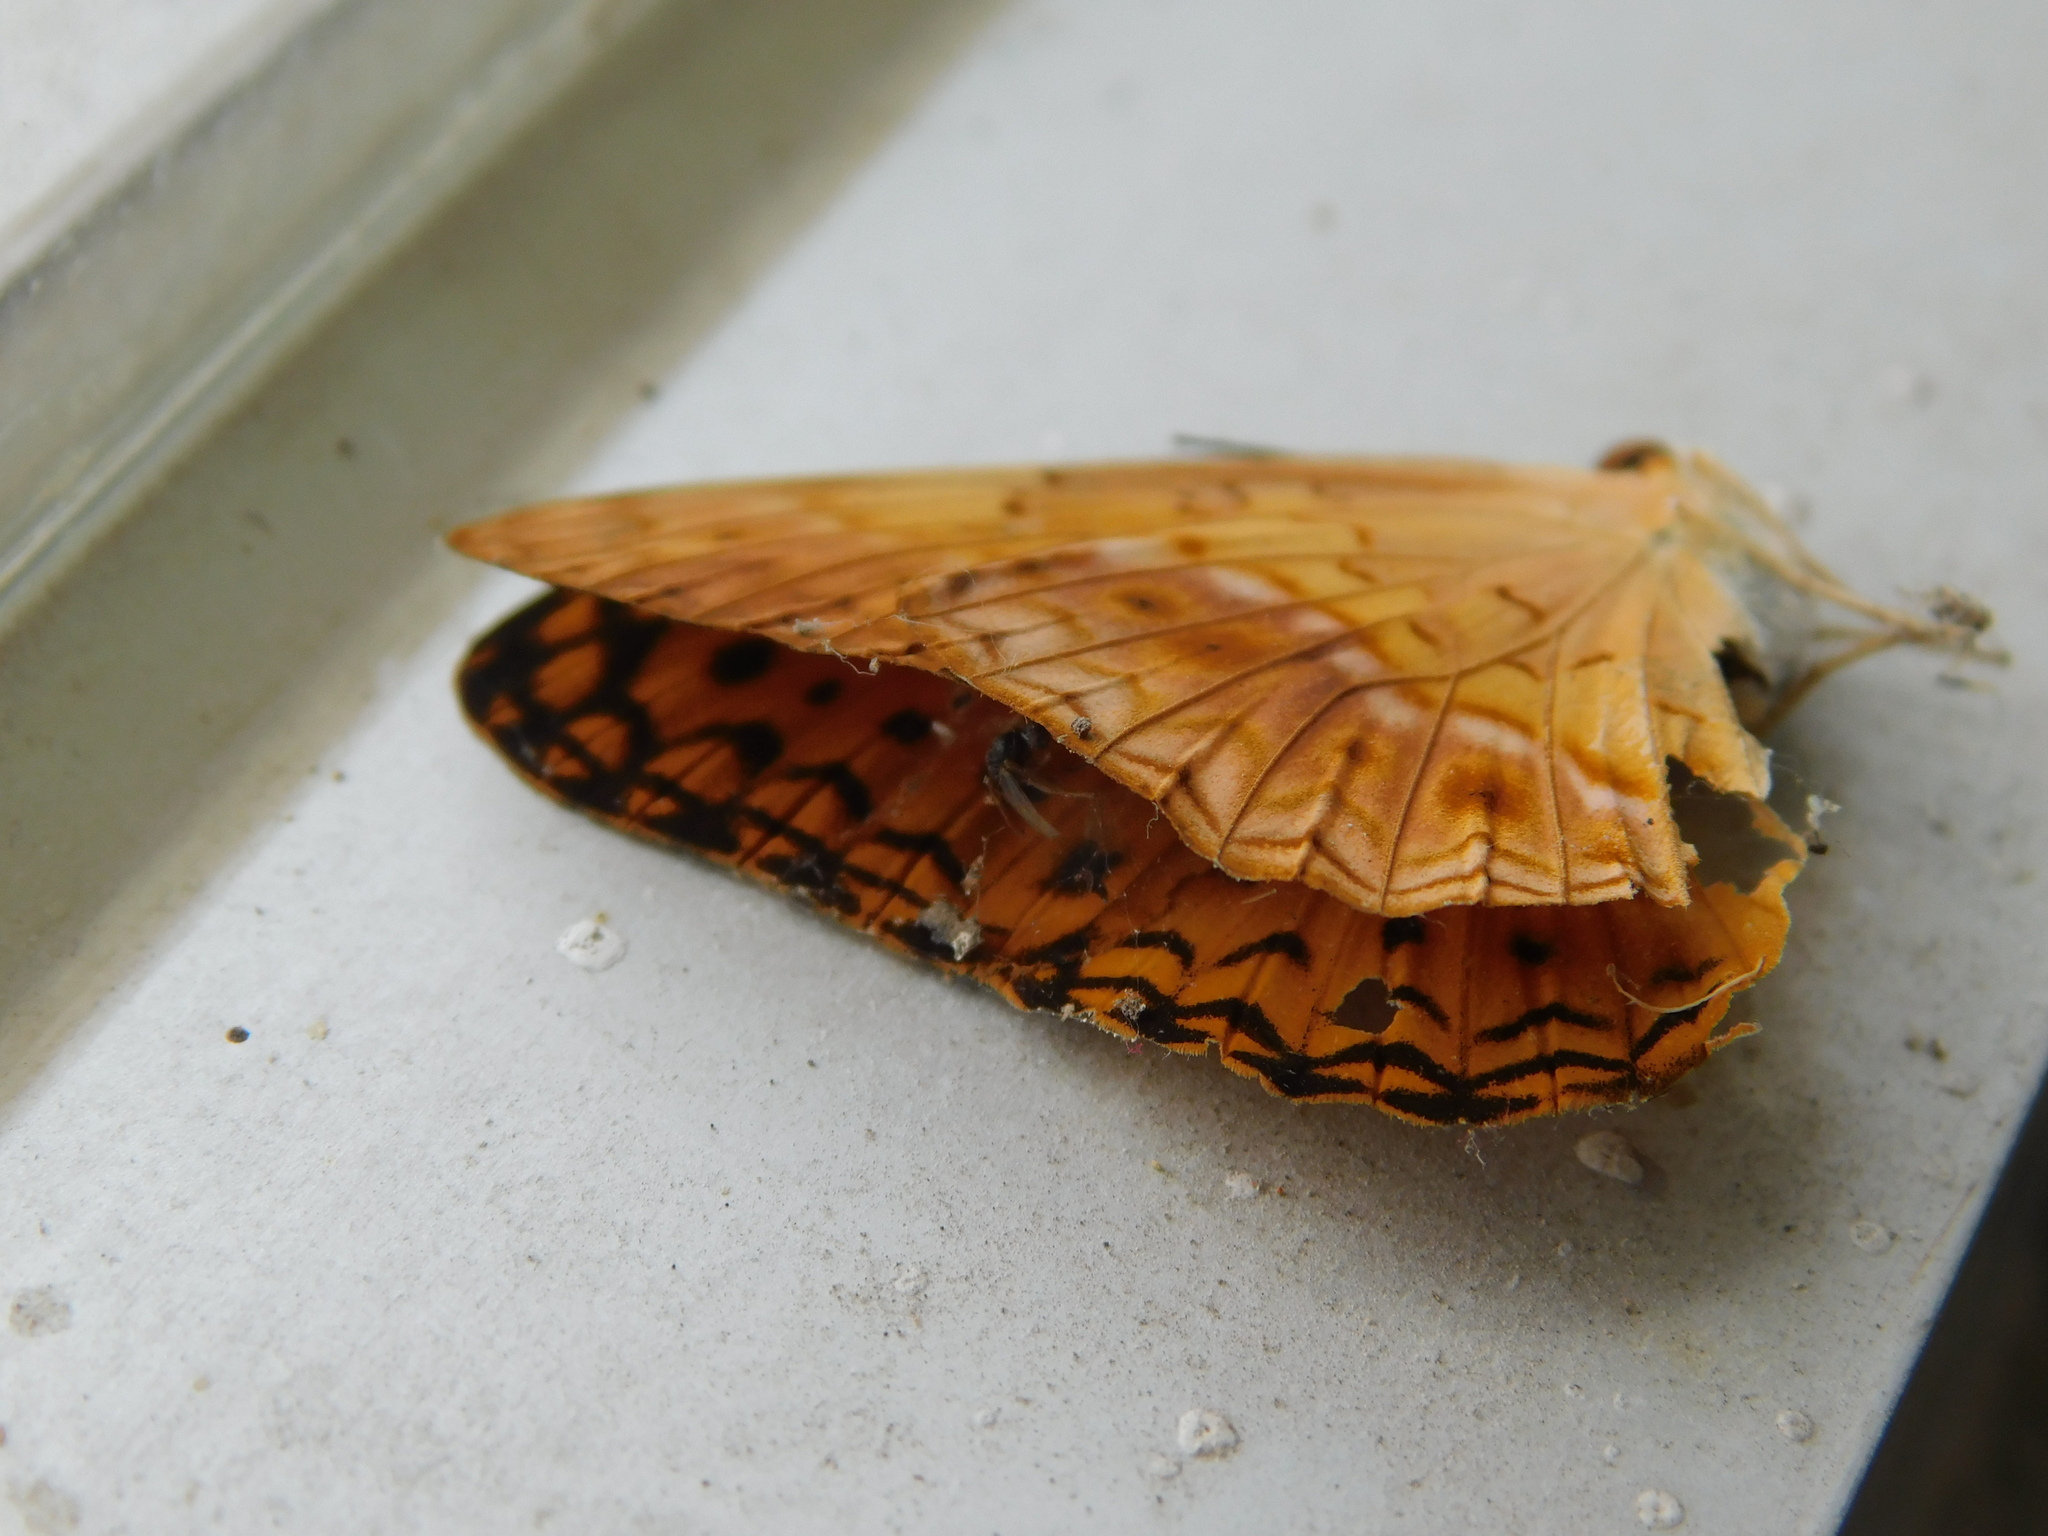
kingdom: Animalia
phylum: Arthropoda
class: Insecta
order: Lepidoptera
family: Nymphalidae
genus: Phalanta
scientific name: Phalanta phalantha
